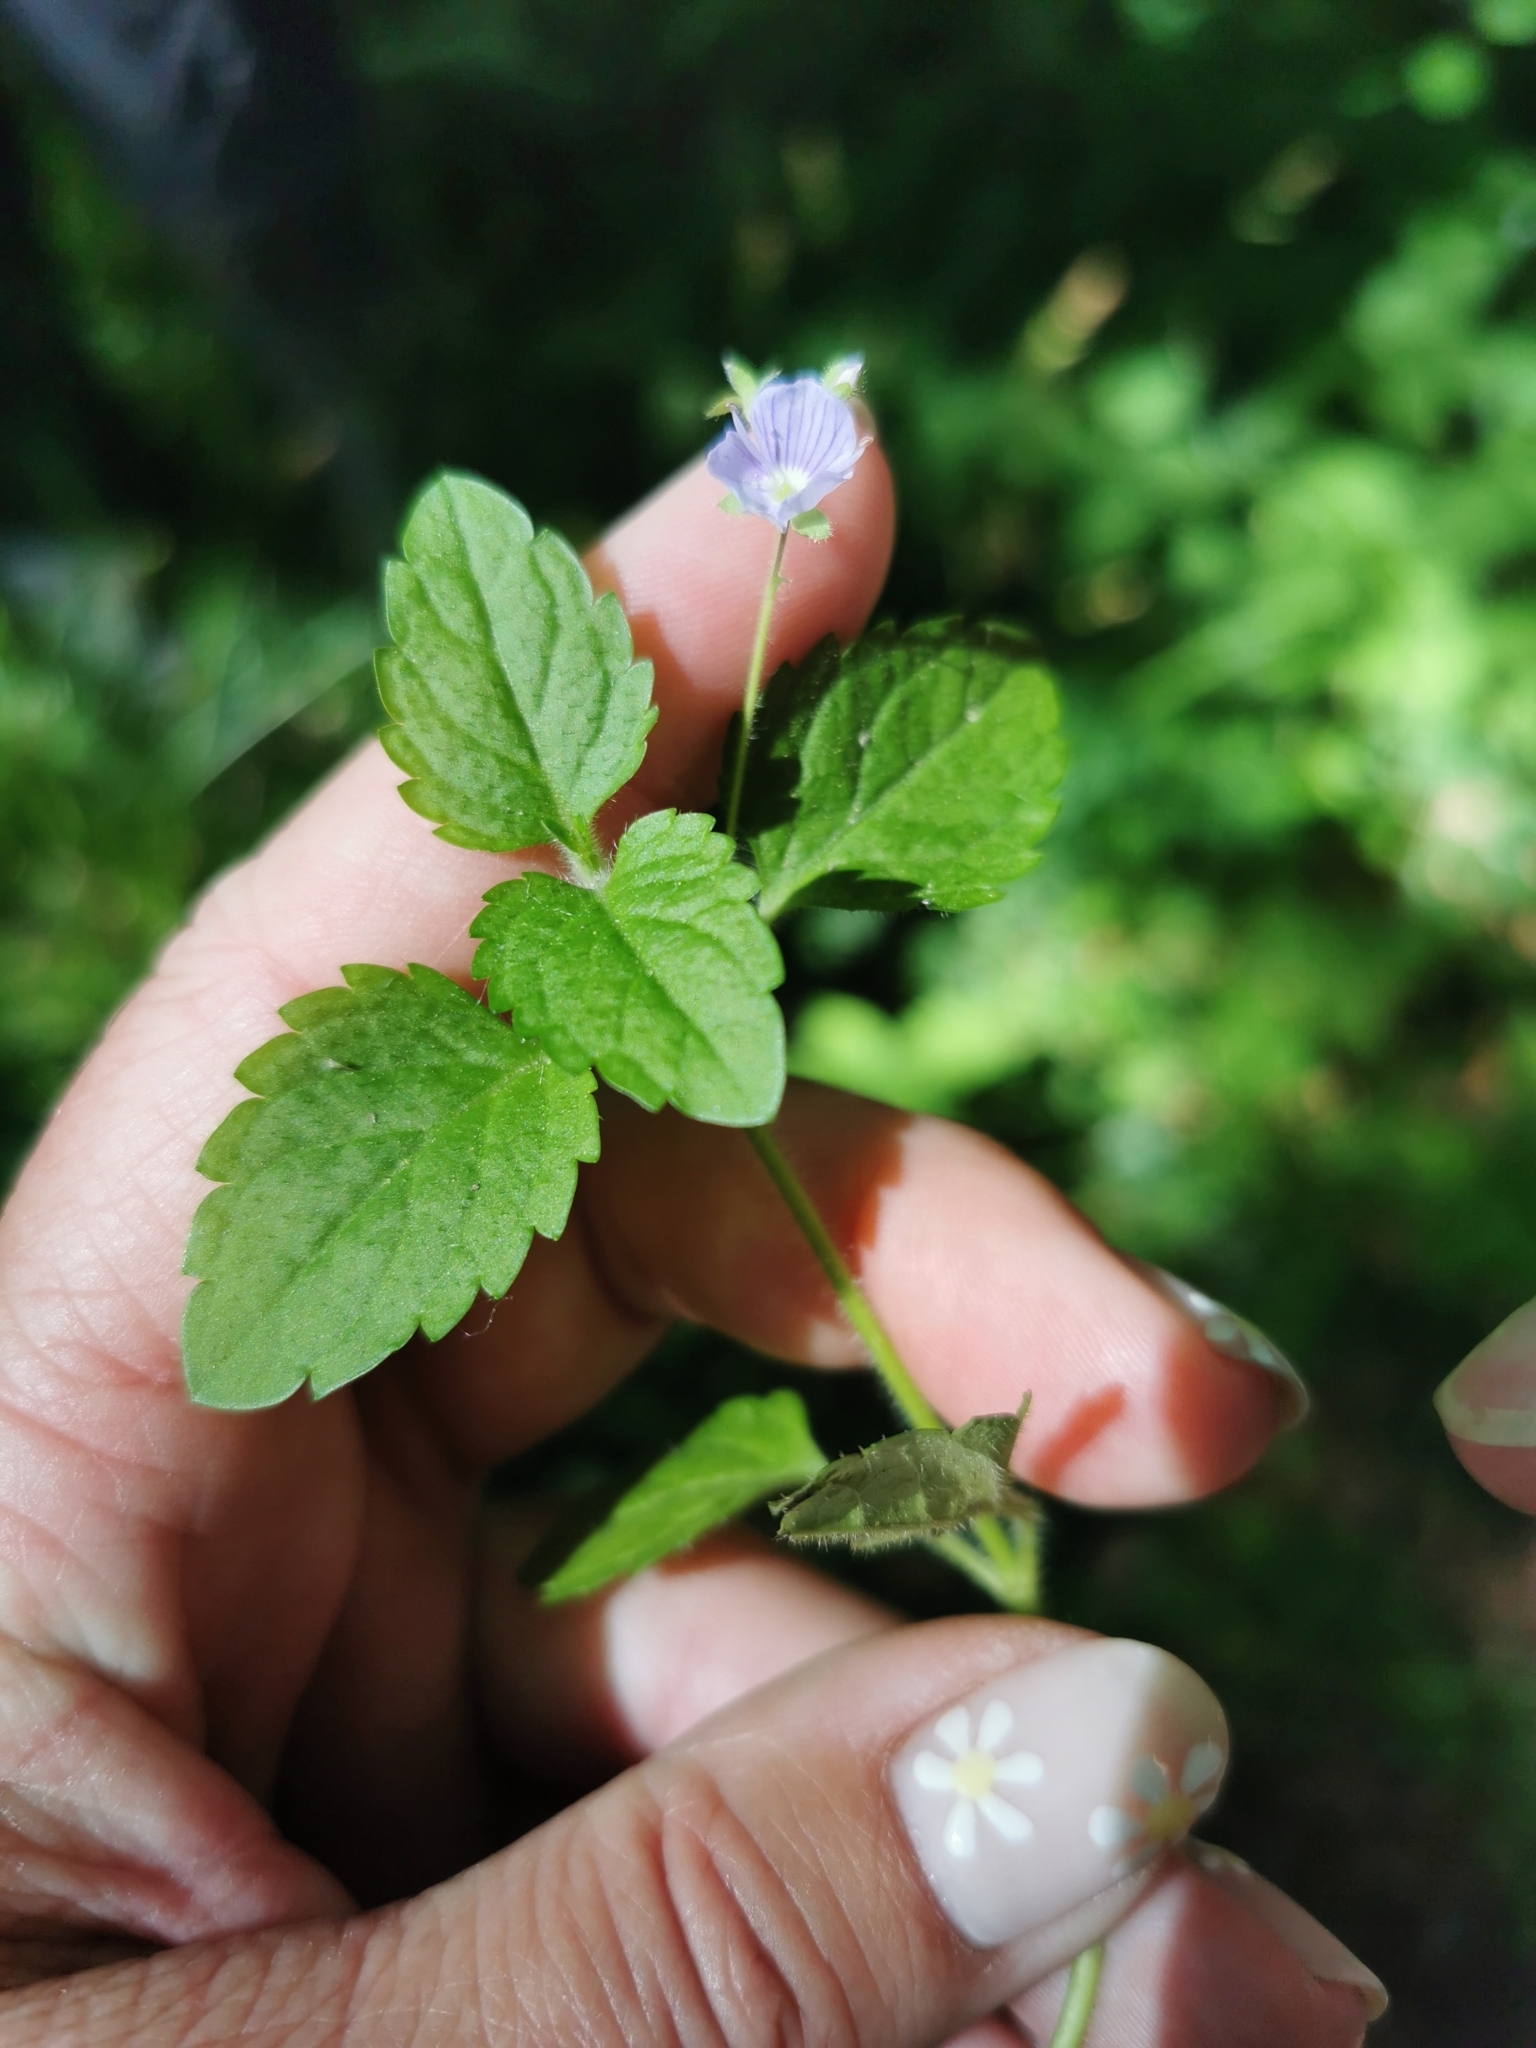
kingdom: Plantae
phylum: Tracheophyta
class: Magnoliopsida
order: Lamiales
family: Plantaginaceae
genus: Veronica
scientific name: Veronica montana
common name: Wood speedwell
